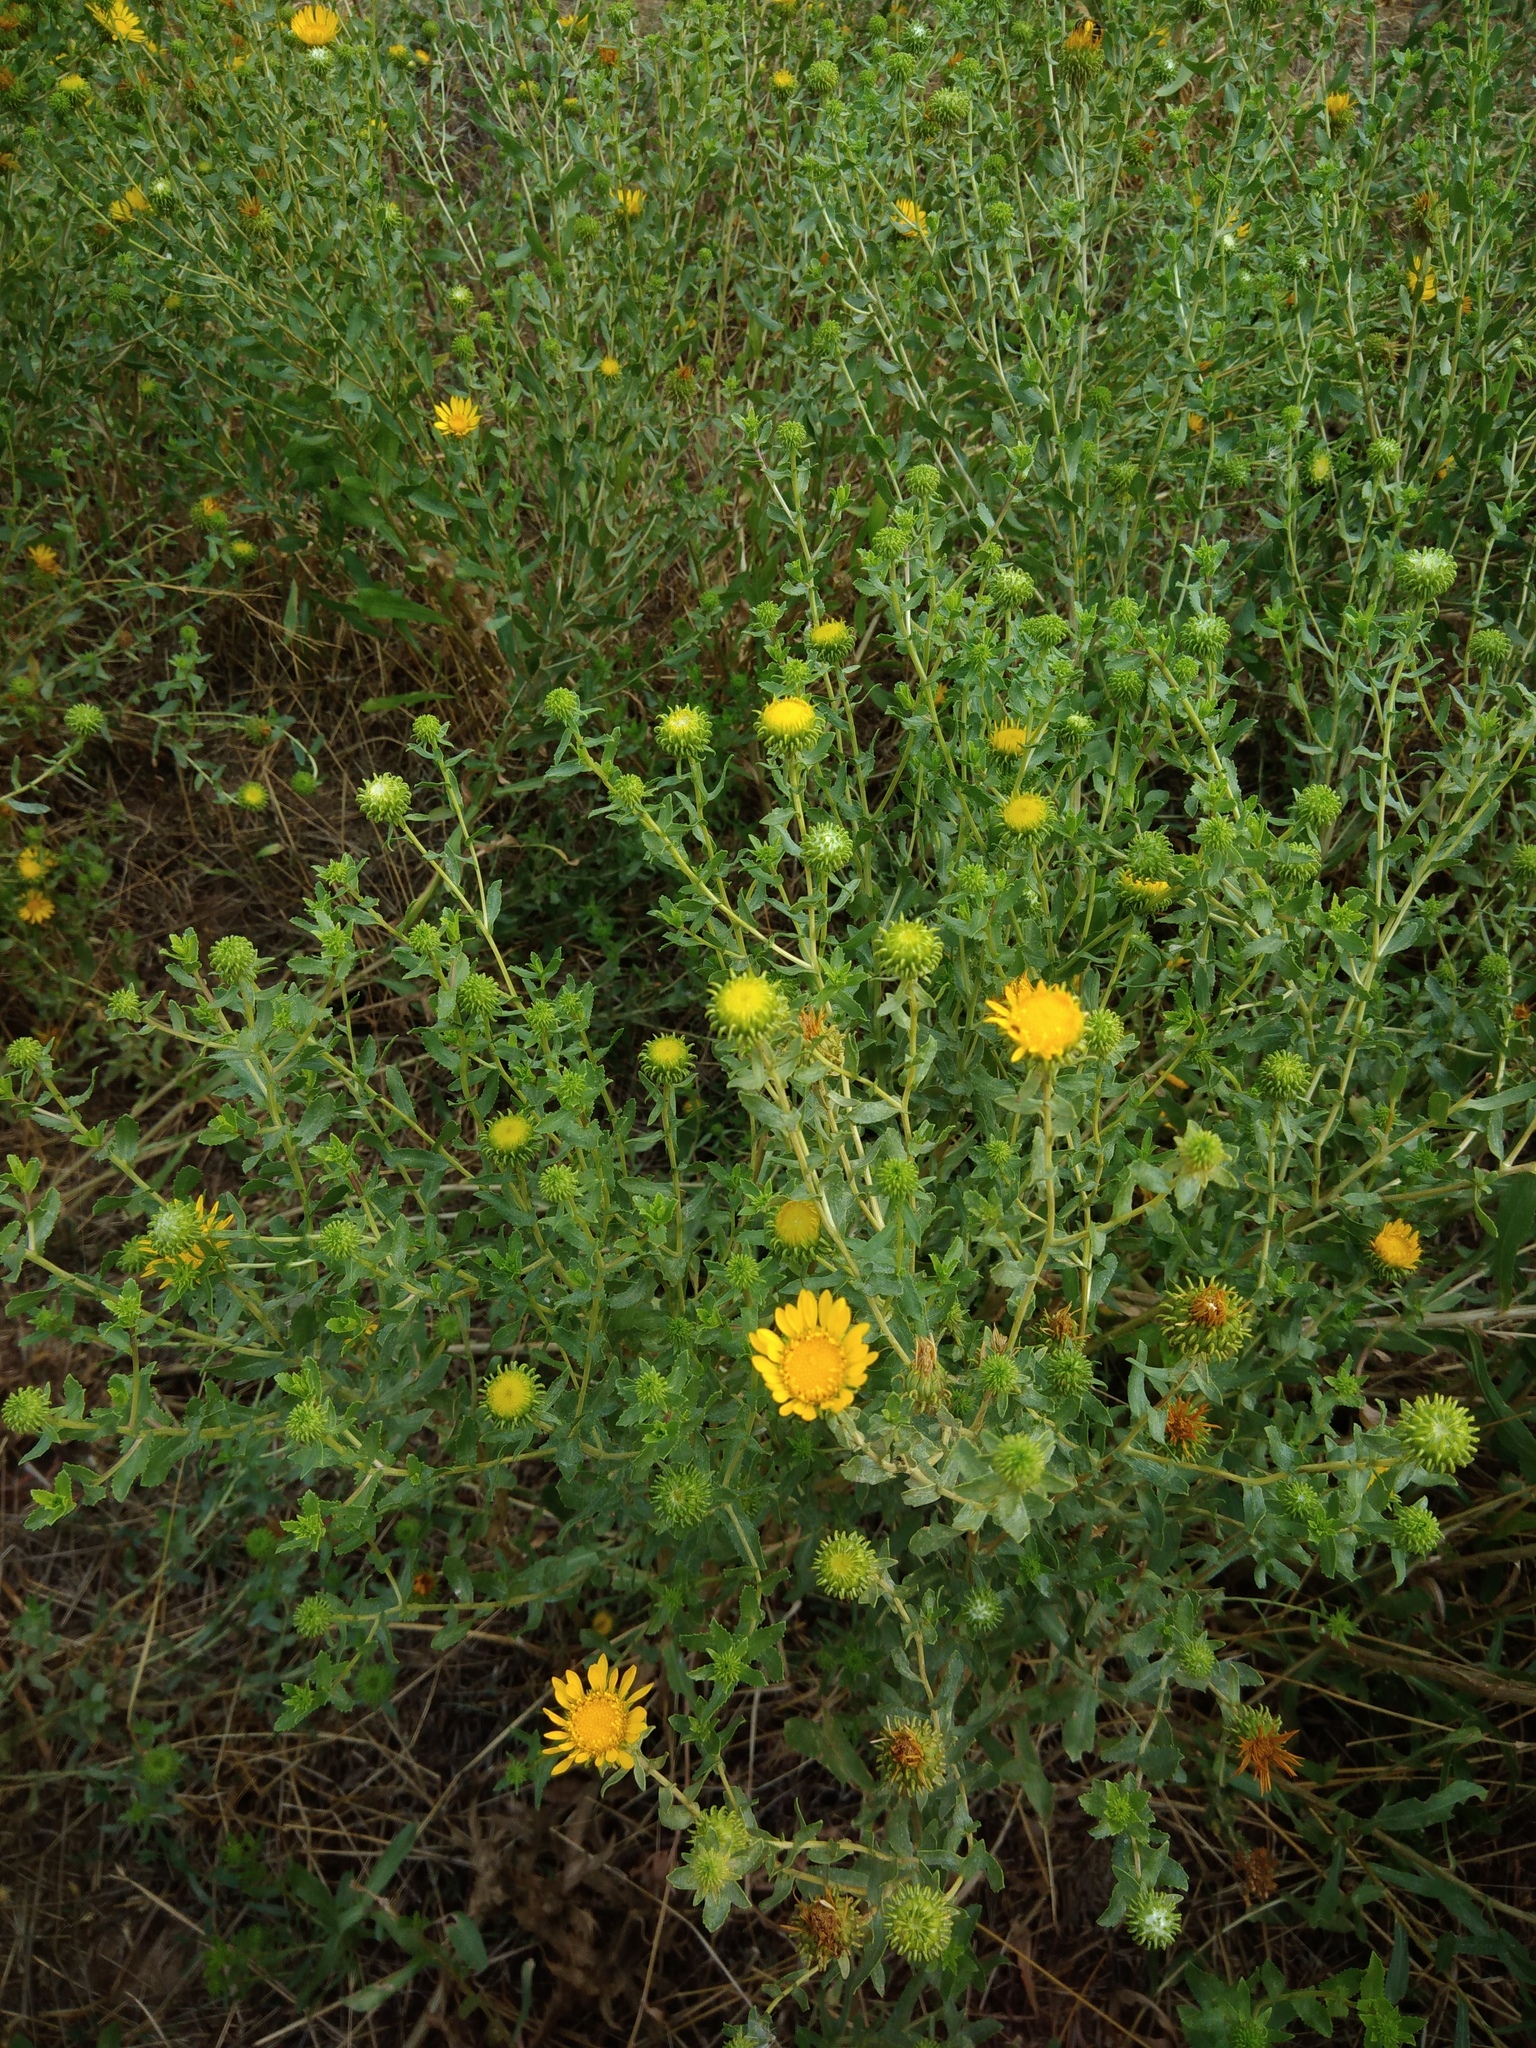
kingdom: Plantae
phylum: Tracheophyta
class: Magnoliopsida
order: Asterales
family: Asteraceae
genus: Grindelia
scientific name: Grindelia squarrosa
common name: Curly-cup gumweed
